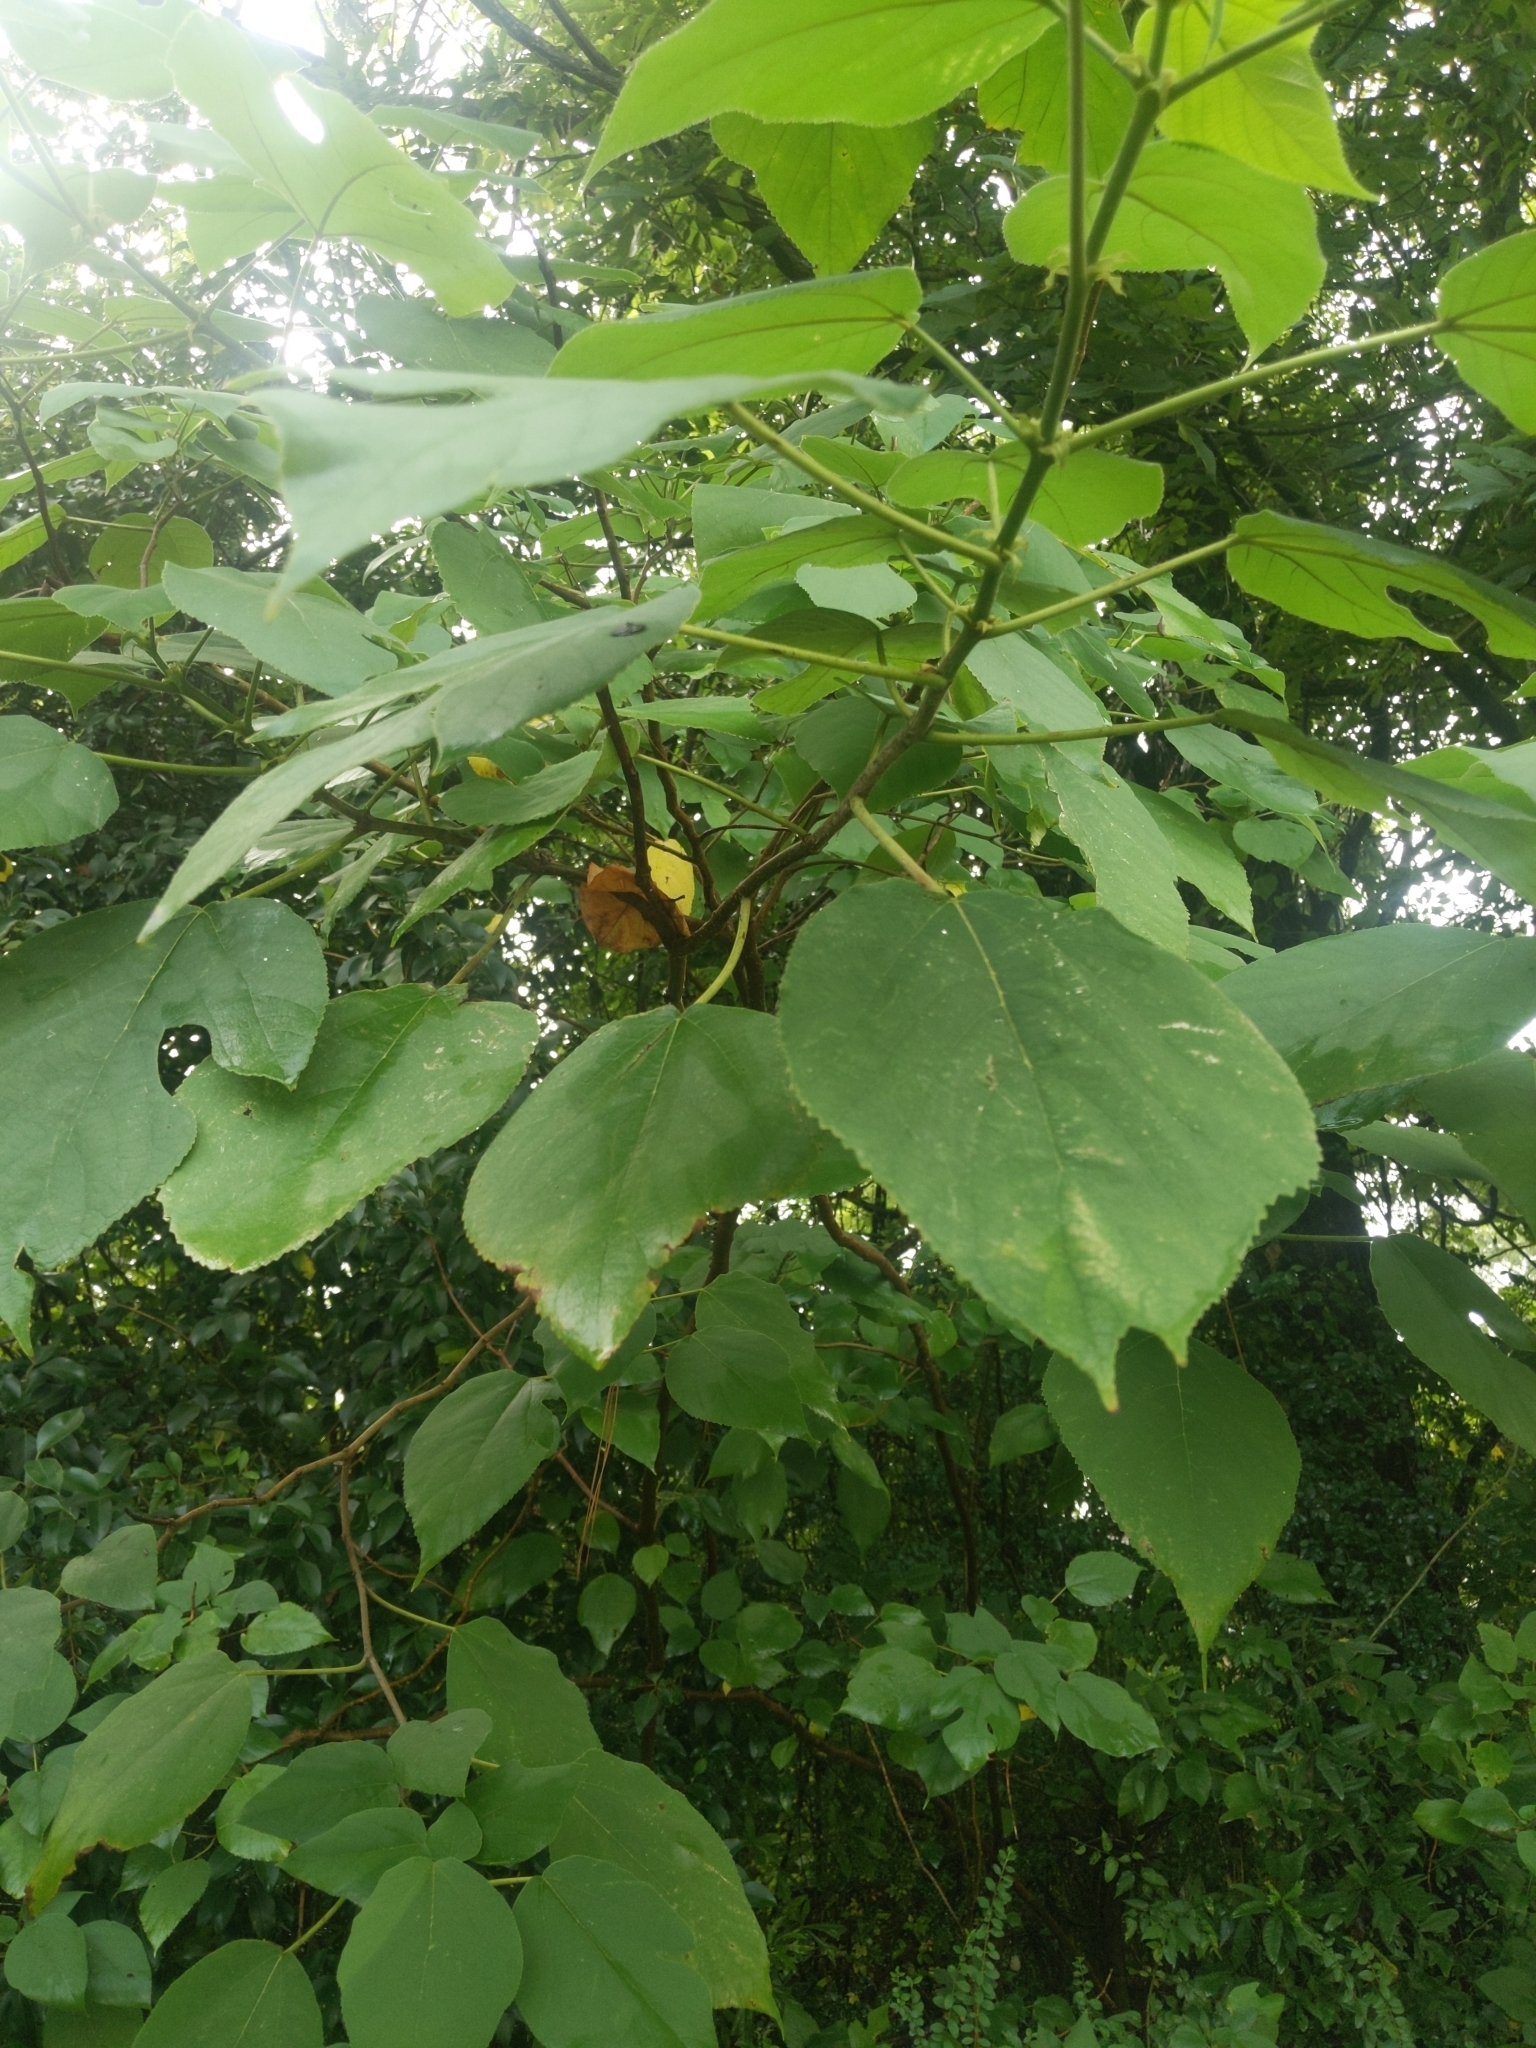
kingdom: Plantae
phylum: Tracheophyta
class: Magnoliopsida
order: Rosales
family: Moraceae
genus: Broussonetia
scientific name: Broussonetia papyrifera
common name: Paper mulberry
